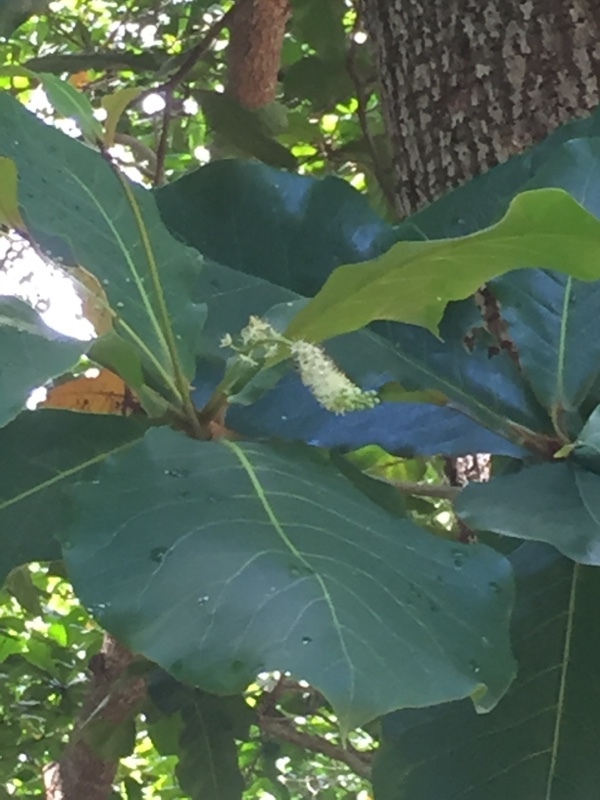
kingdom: Plantae
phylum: Tracheophyta
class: Magnoliopsida
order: Myrtales
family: Combretaceae
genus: Terminalia
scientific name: Terminalia catappa
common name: Tropical almond
